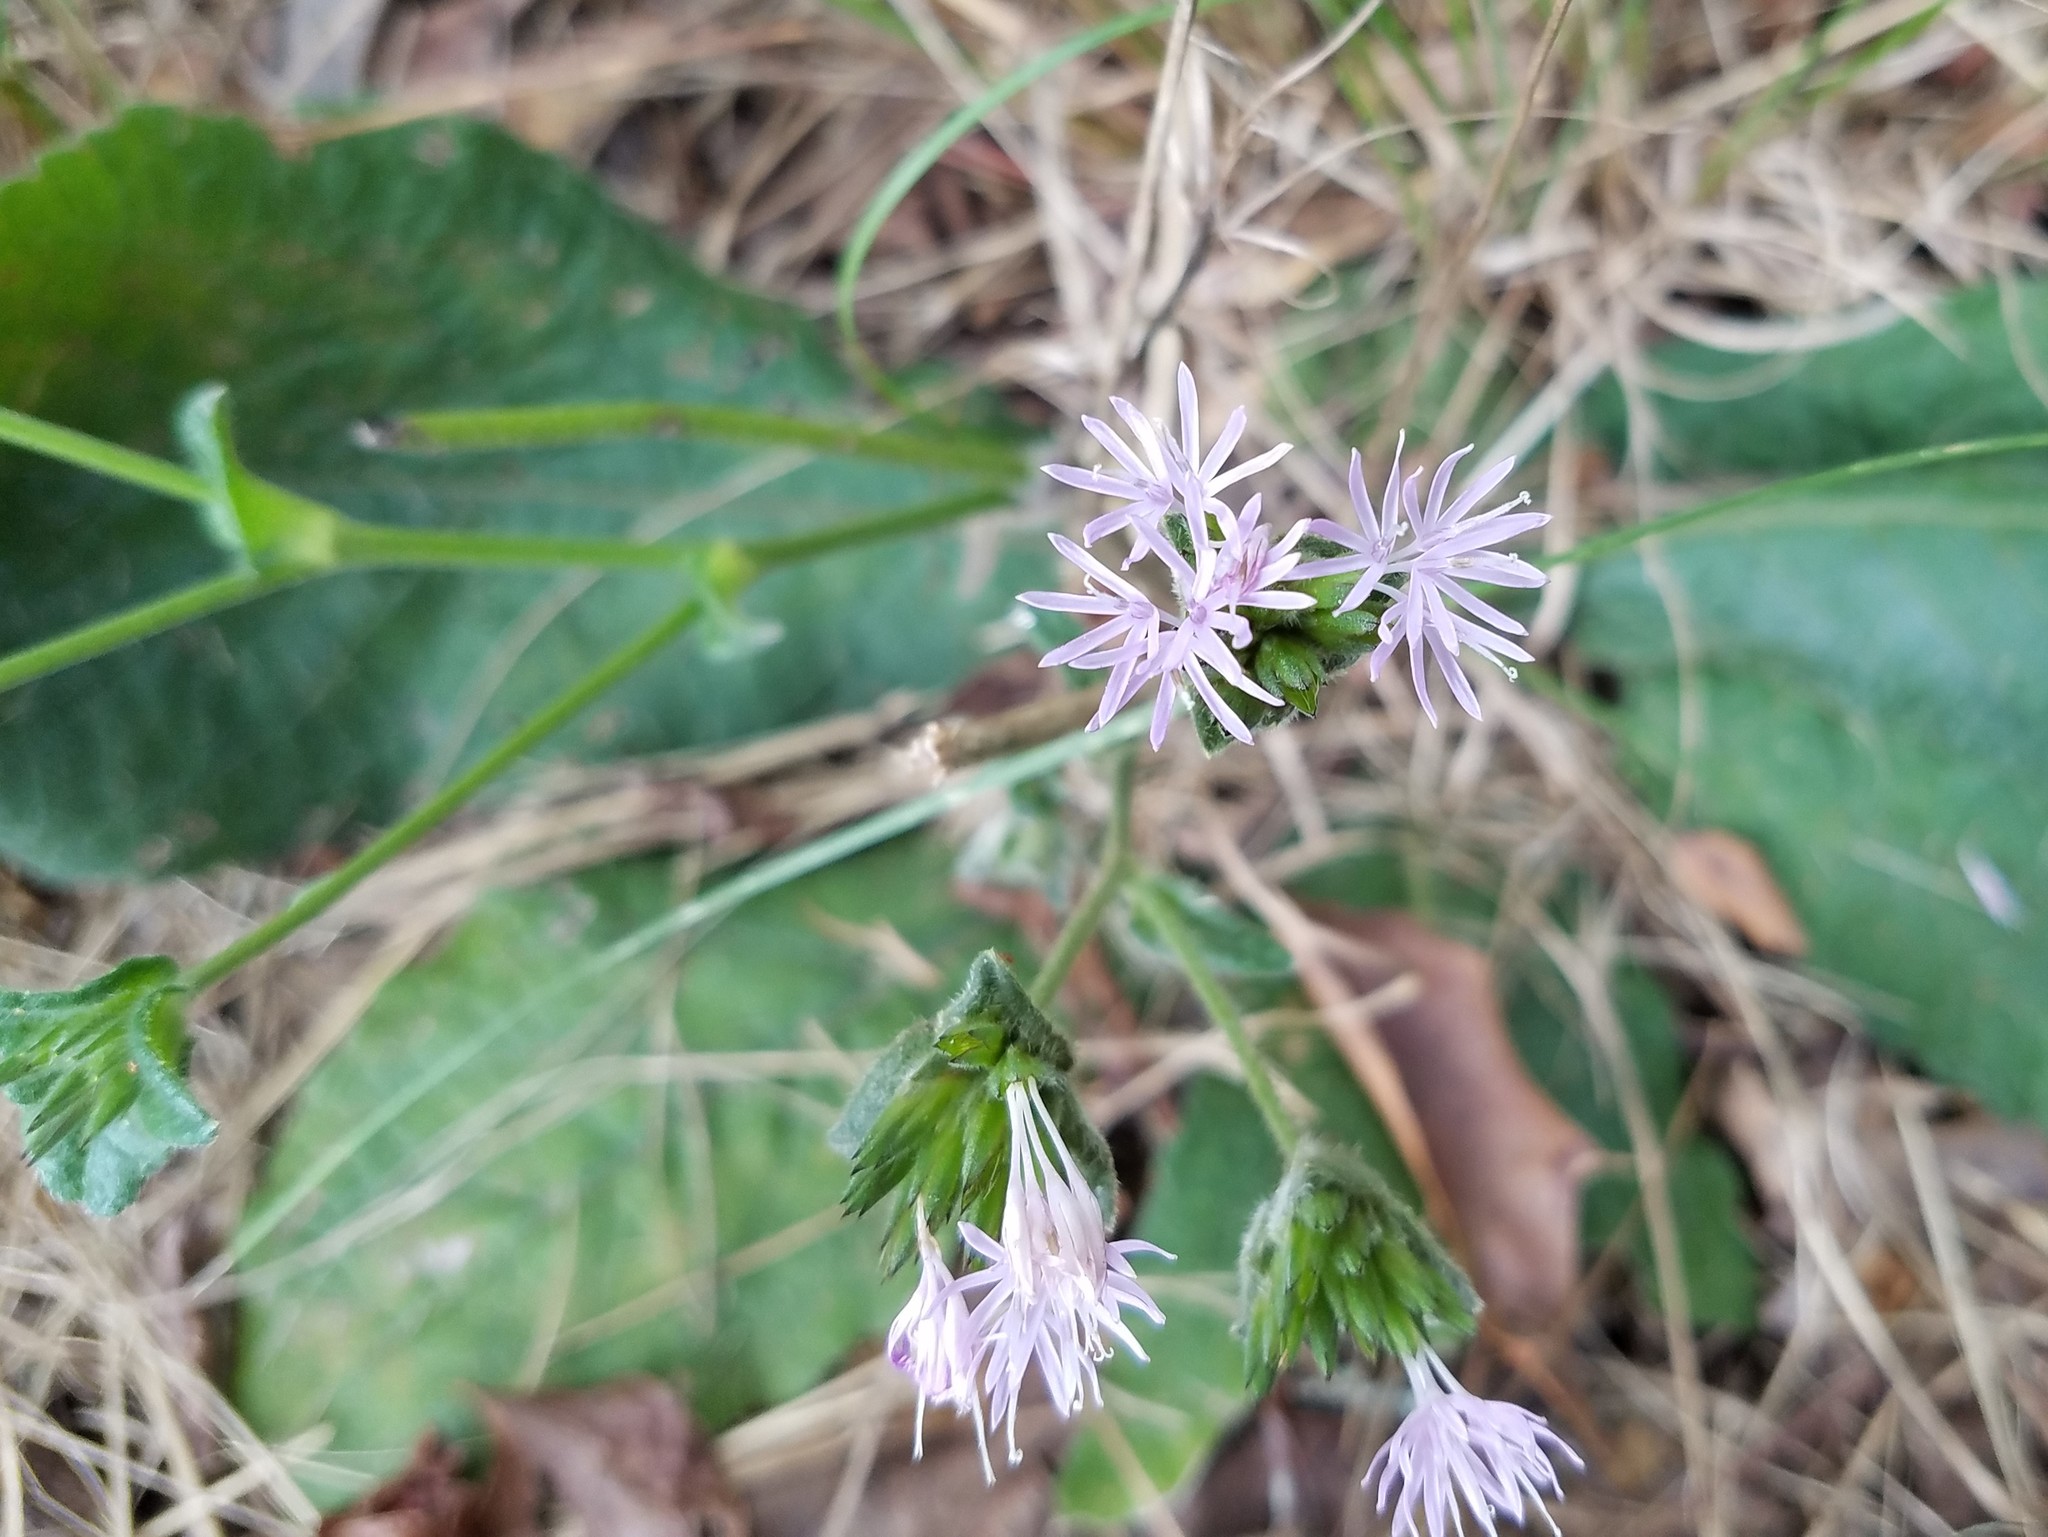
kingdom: Plantae
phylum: Tracheophyta
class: Magnoliopsida
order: Asterales
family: Asteraceae
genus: Elephantopus
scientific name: Elephantopus tomentosus
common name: Tobacco-weed
